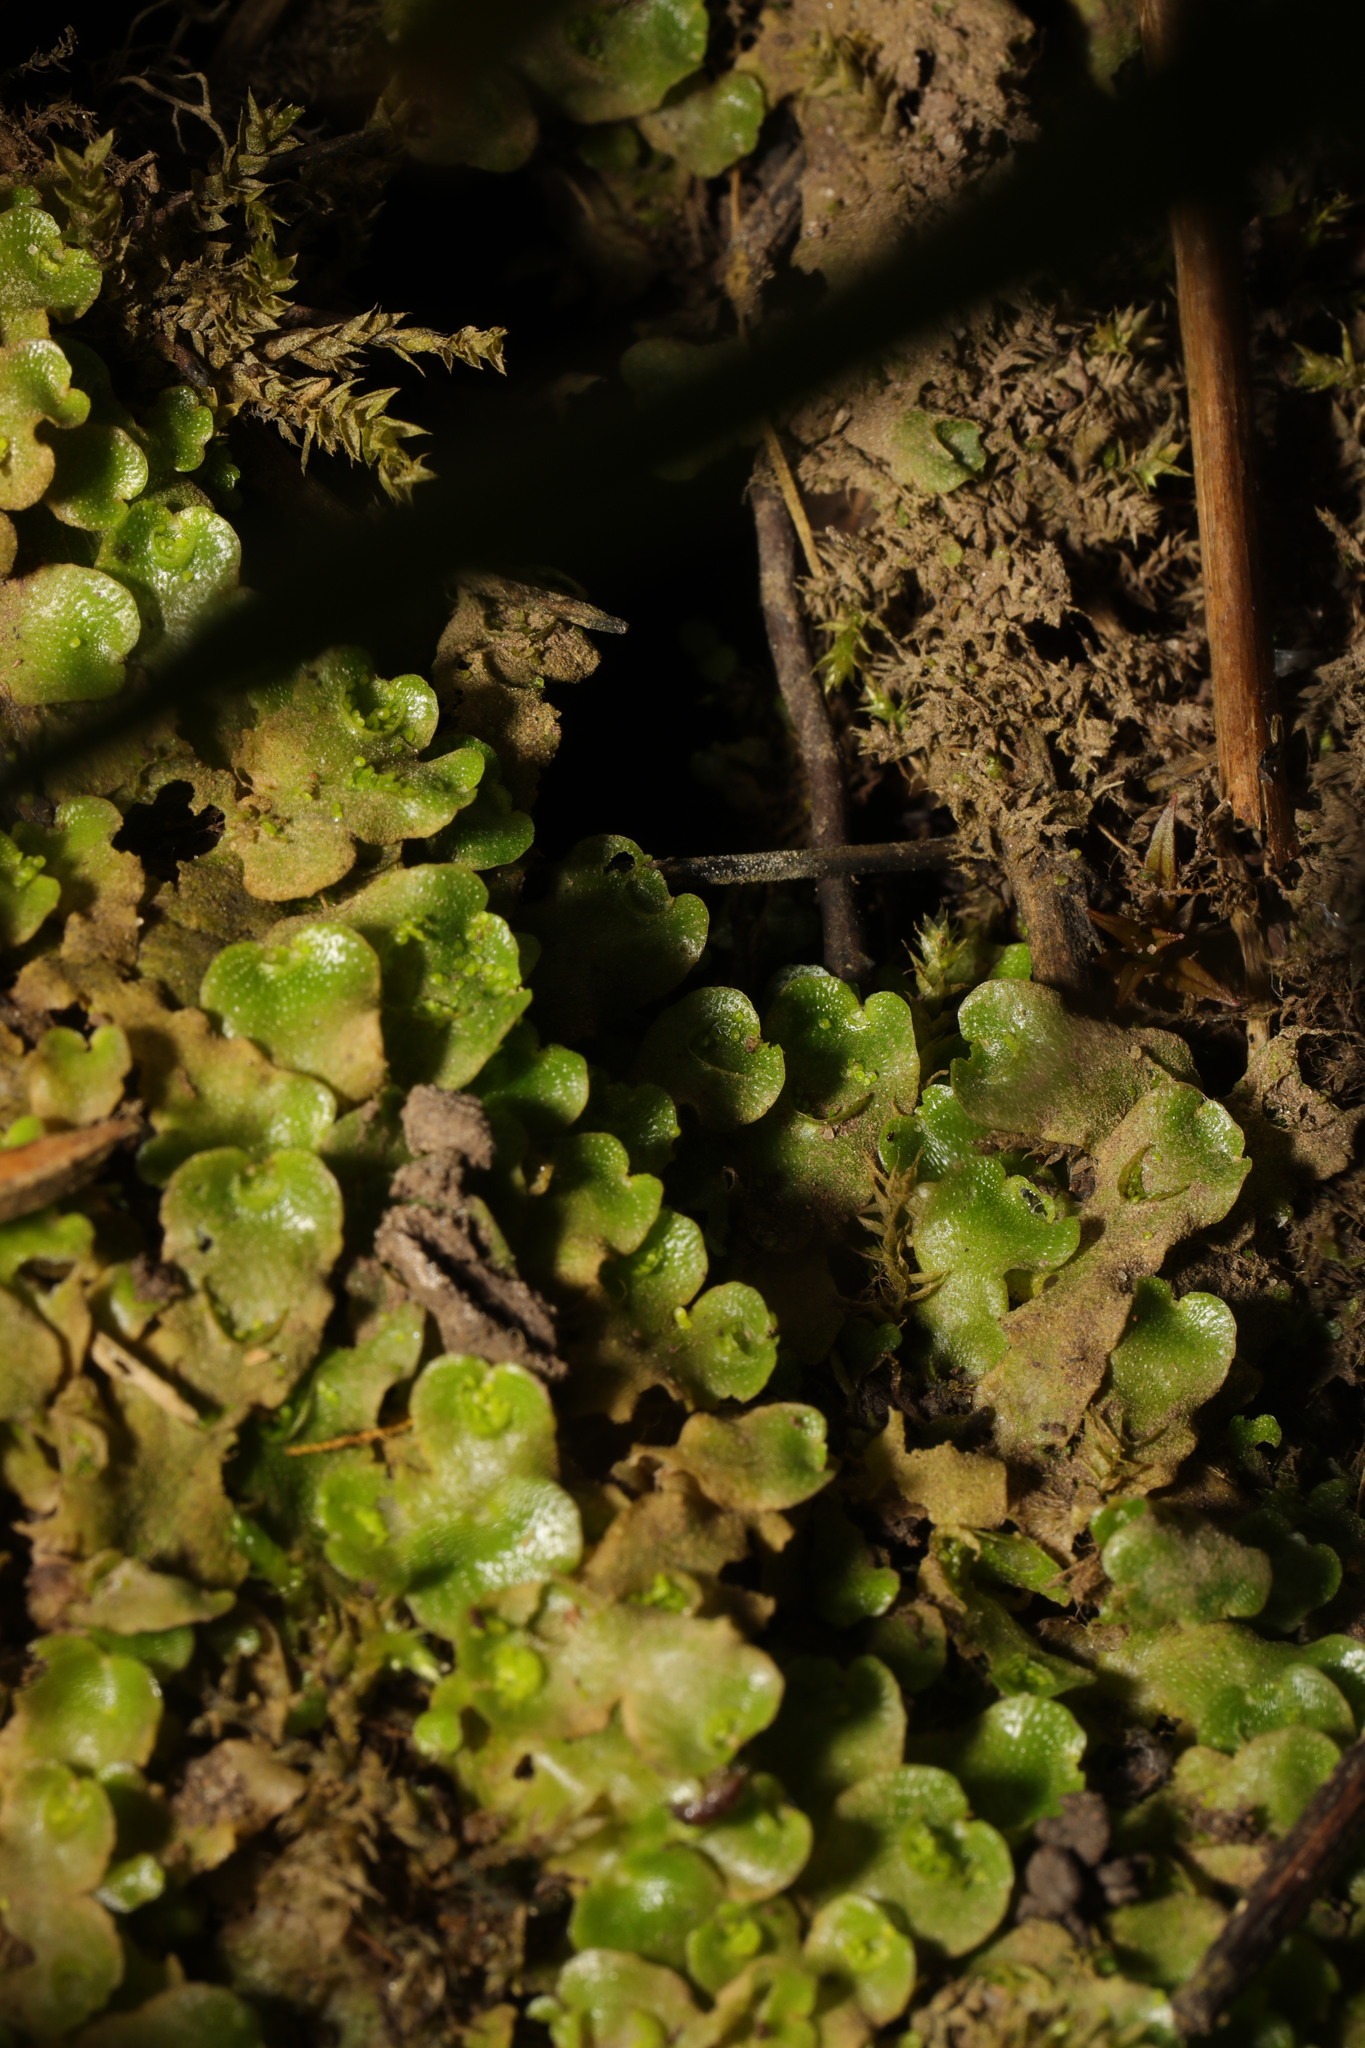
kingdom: Plantae
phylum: Marchantiophyta
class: Marchantiopsida
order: Lunulariales
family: Lunulariaceae
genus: Lunularia
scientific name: Lunularia cruciata
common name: Crescent-cup liverwort
